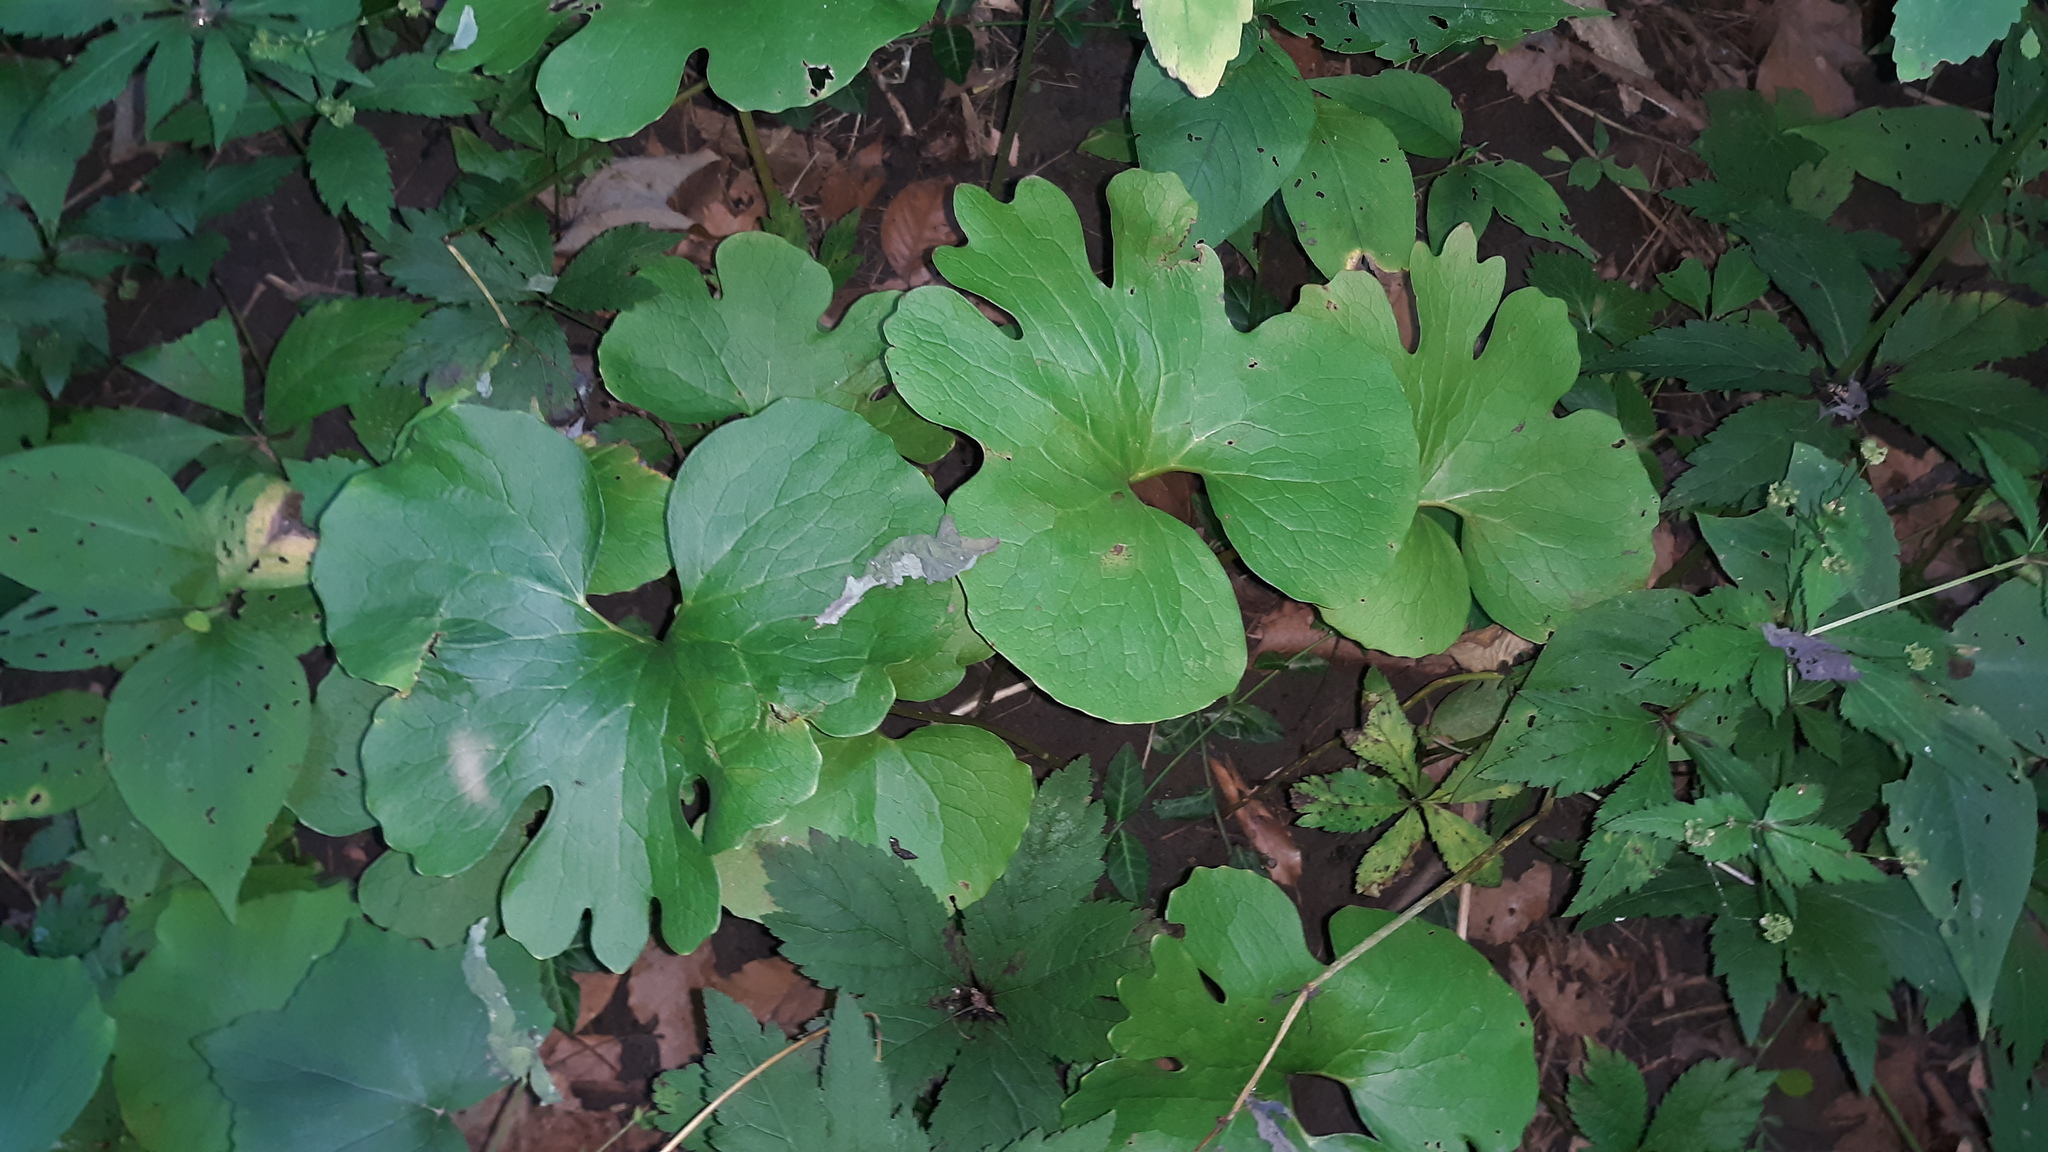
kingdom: Plantae
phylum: Tracheophyta
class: Magnoliopsida
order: Ranunculales
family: Papaveraceae
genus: Sanguinaria
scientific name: Sanguinaria canadensis
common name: Bloodroot
